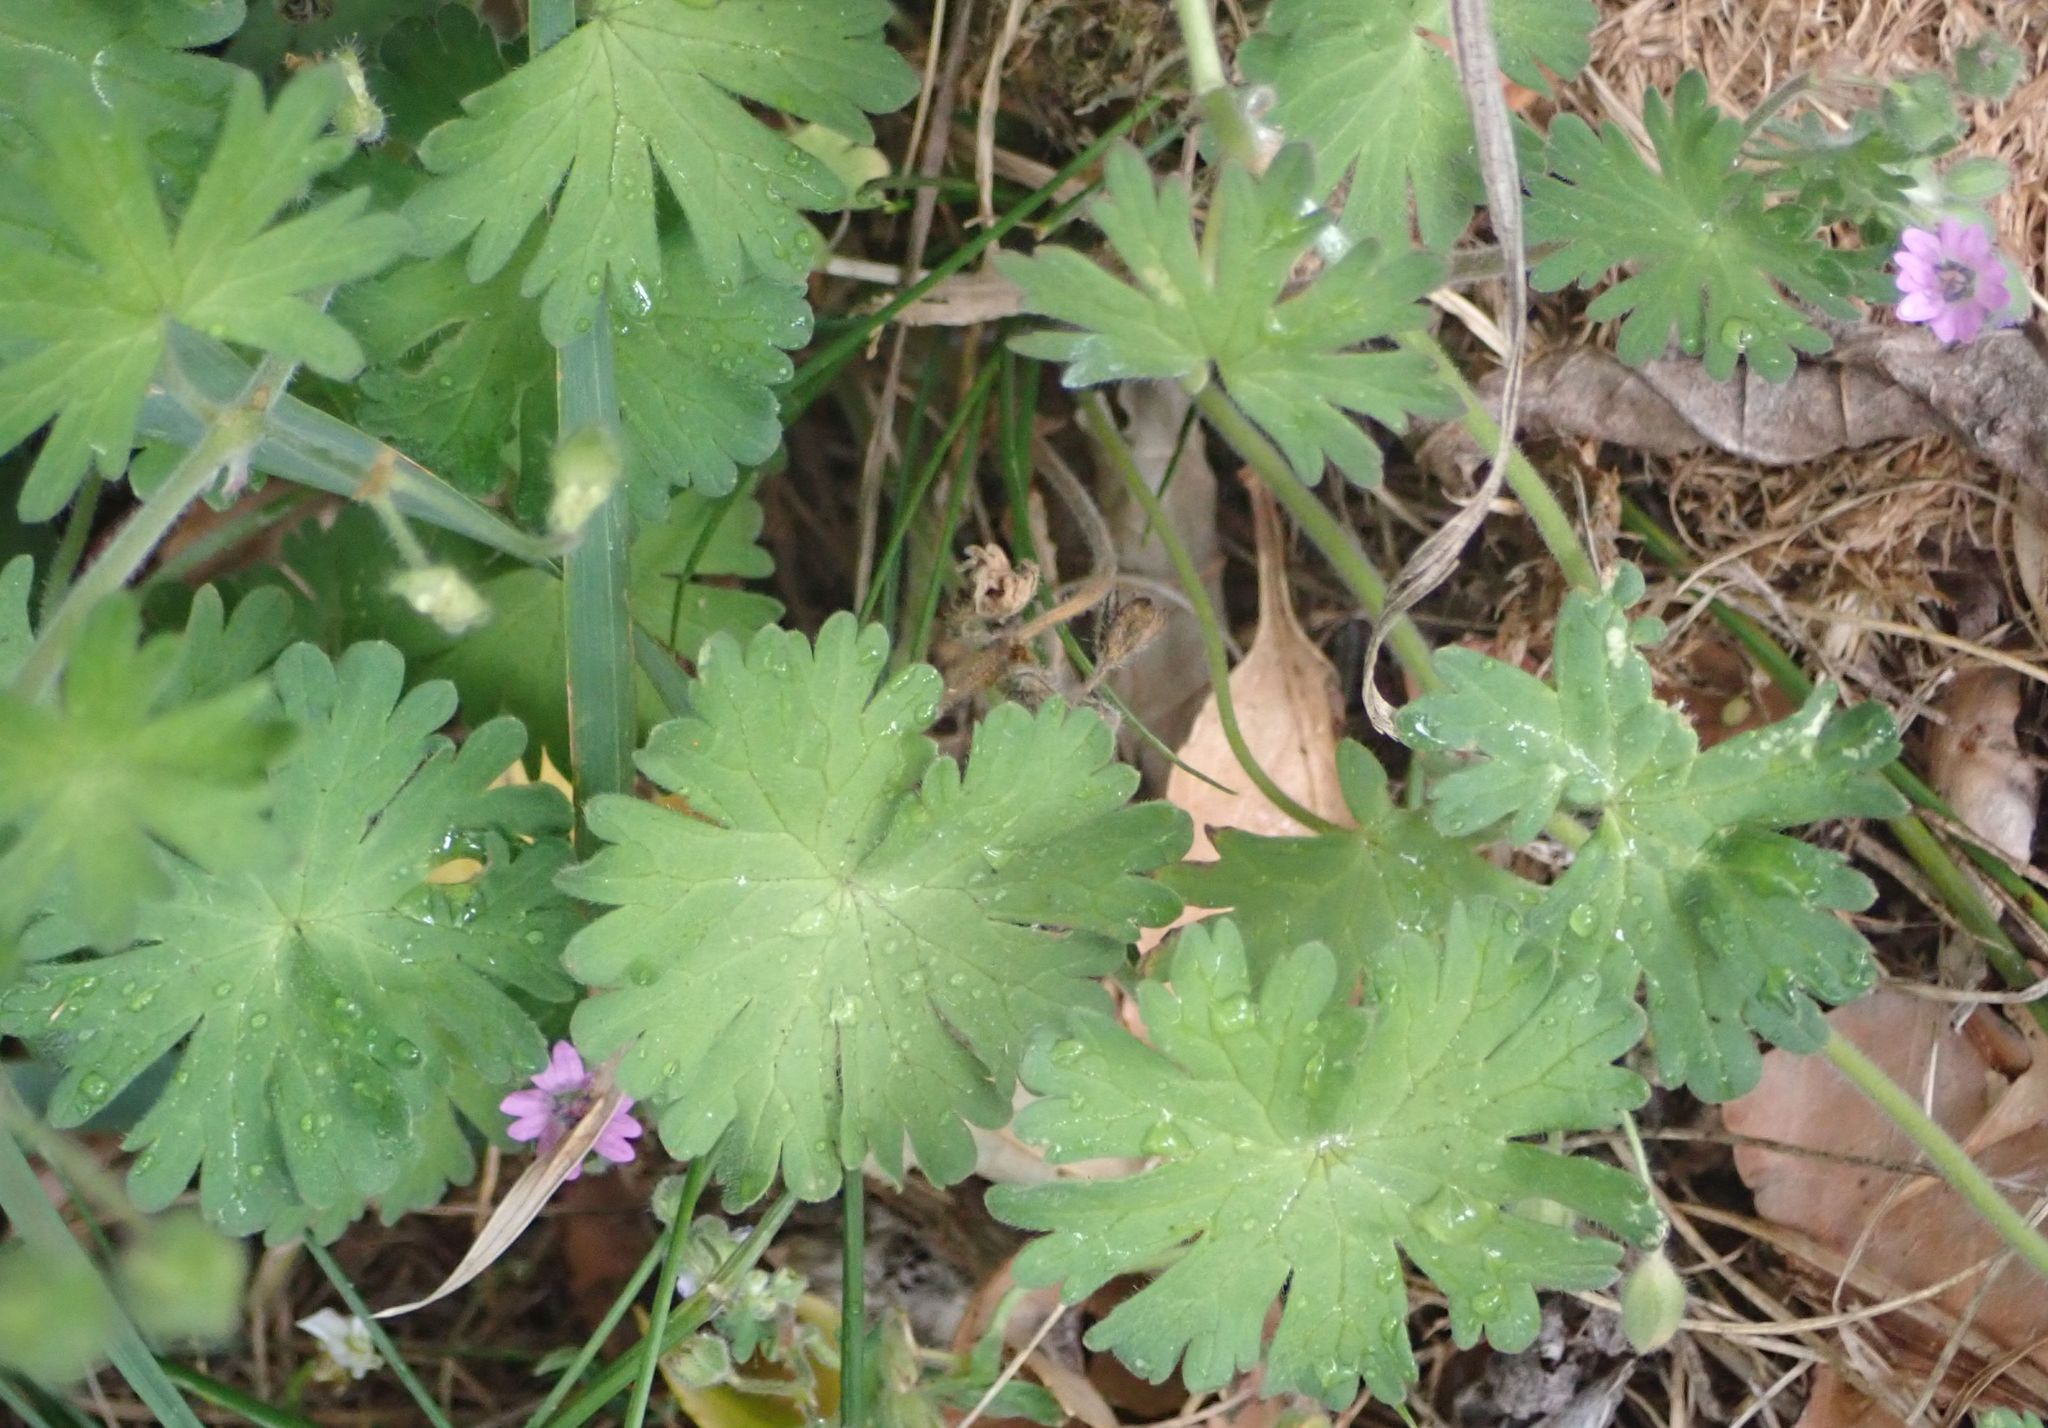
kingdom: Plantae
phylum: Tracheophyta
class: Magnoliopsida
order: Geraniales
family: Geraniaceae
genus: Geranium
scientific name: Geranium molle
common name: Dove's-foot crane's-bill
